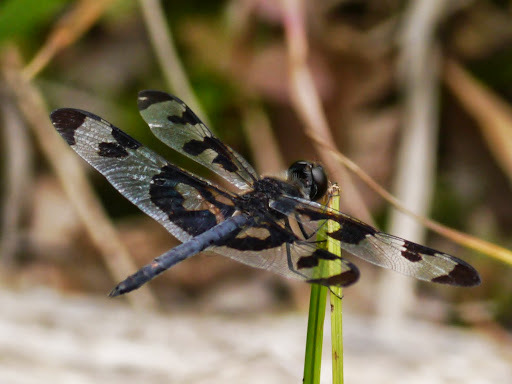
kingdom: Animalia
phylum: Arthropoda
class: Insecta
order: Odonata
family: Libellulidae
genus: Celithemis
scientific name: Celithemis fasciata
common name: Banded pennant
